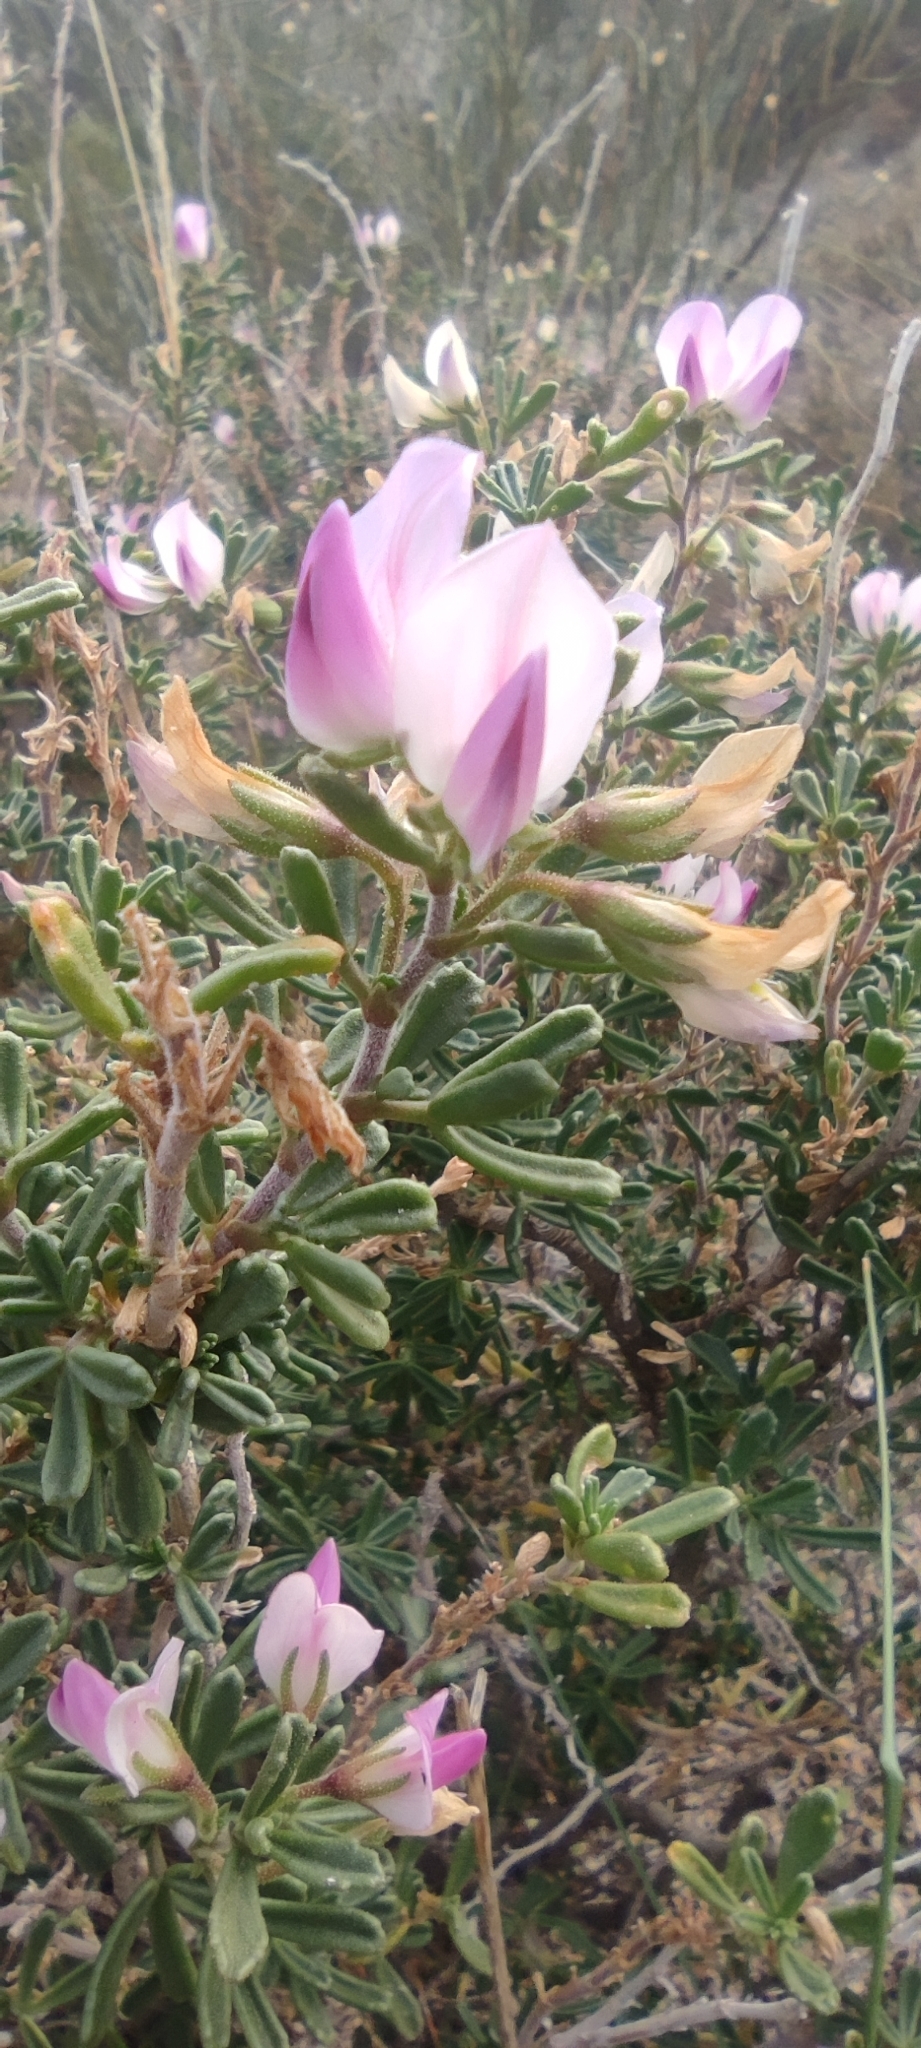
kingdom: Plantae
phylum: Tracheophyta
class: Magnoliopsida
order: Fabales
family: Fabaceae
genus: Ononis
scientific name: Ononis tridentata
